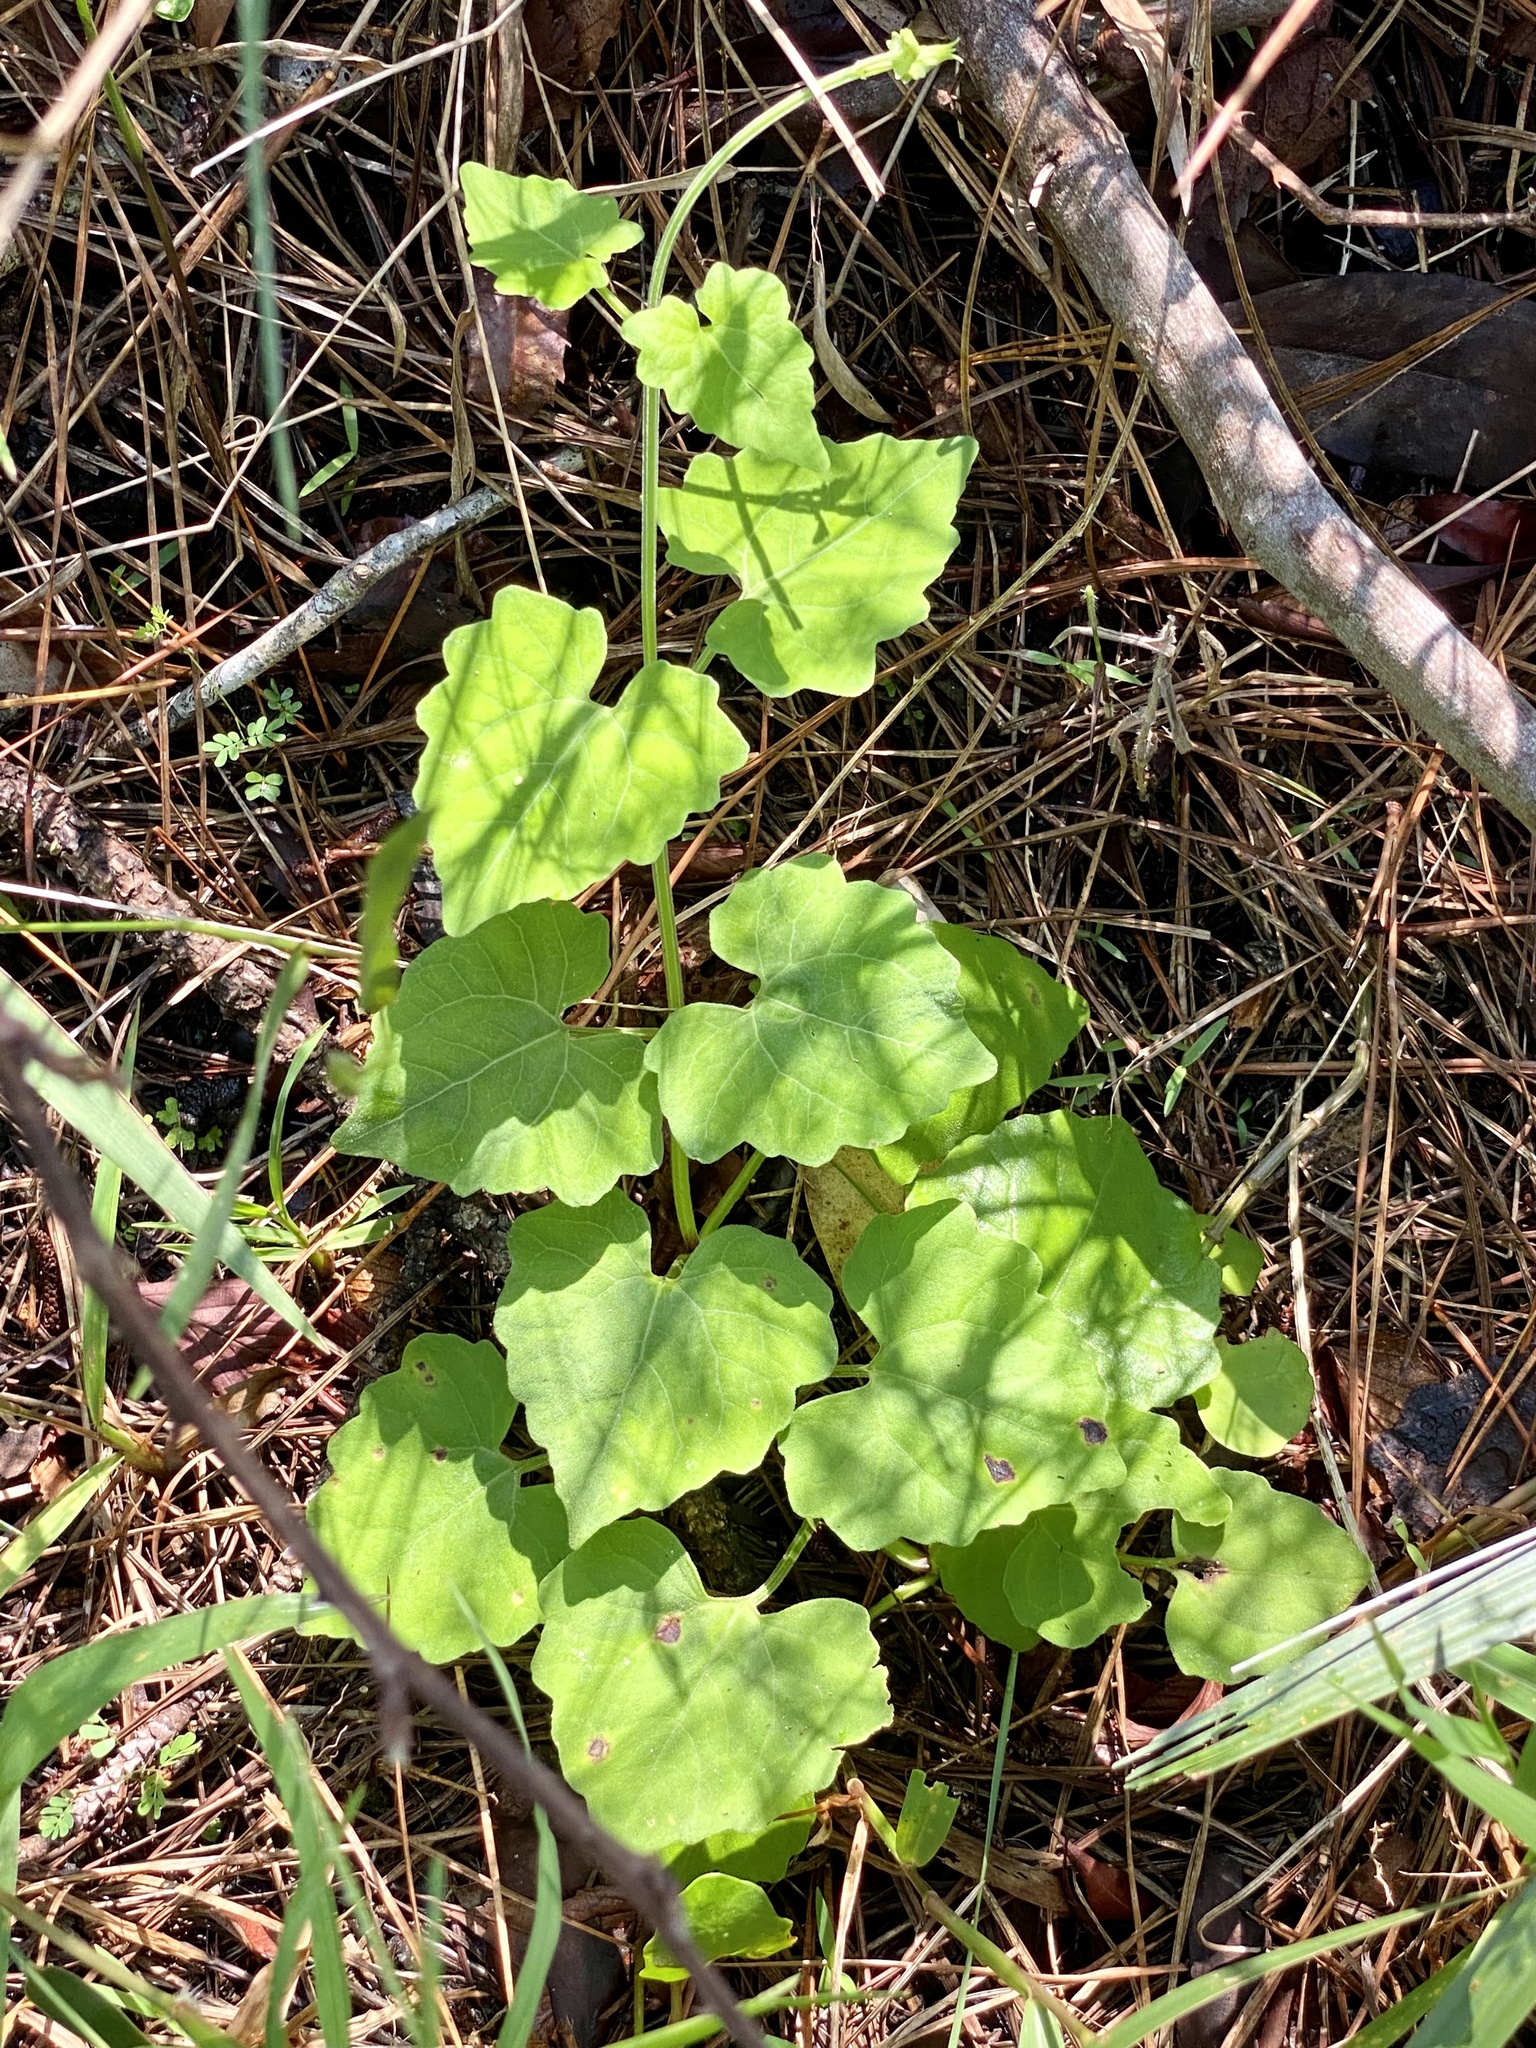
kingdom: Plantae
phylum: Tracheophyta
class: Magnoliopsida
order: Asterales
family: Asteraceae
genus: Mikania
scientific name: Mikania cordifolia
